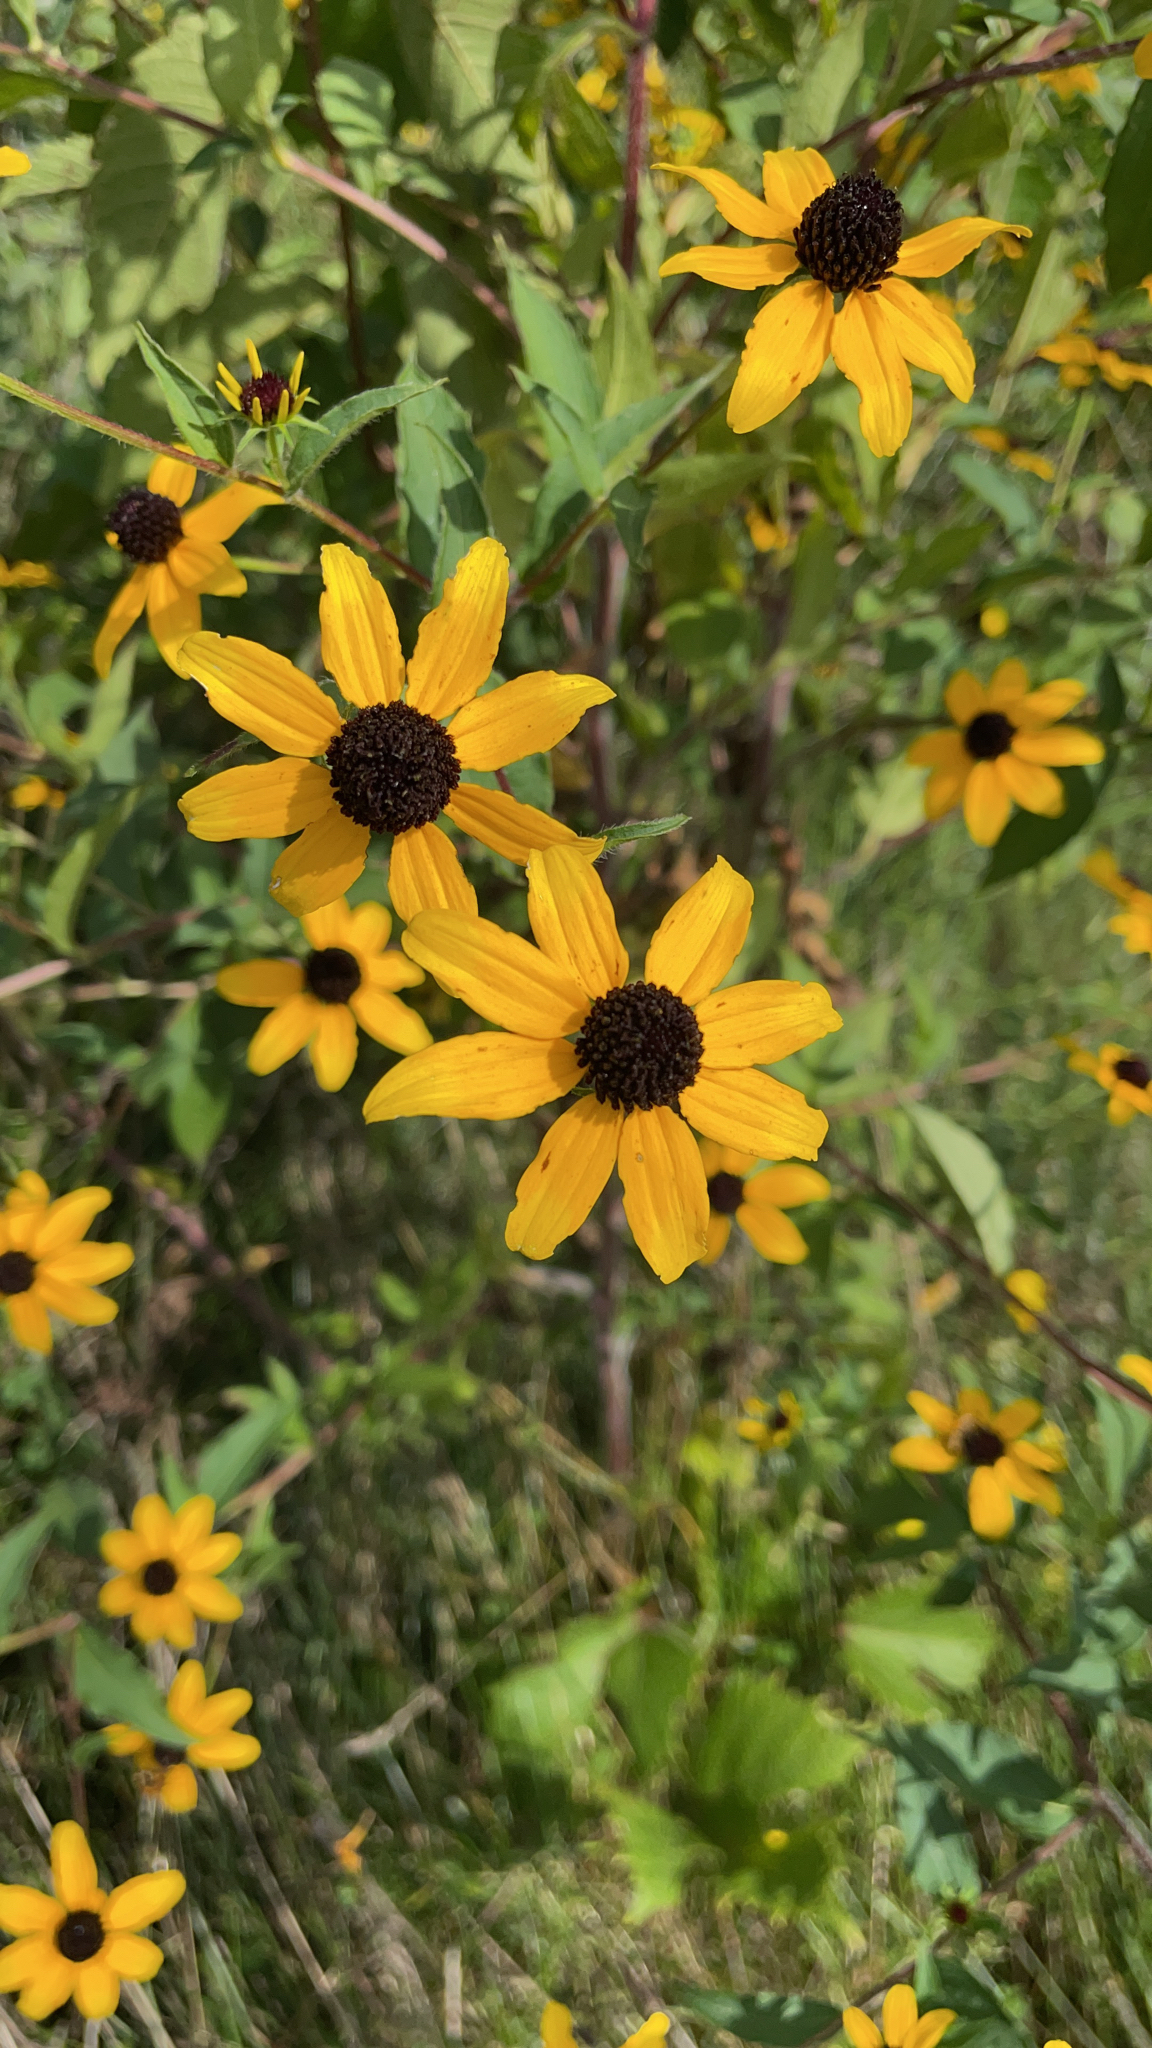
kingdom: Plantae
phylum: Tracheophyta
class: Magnoliopsida
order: Asterales
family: Asteraceae
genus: Rudbeckia
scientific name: Rudbeckia triloba
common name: Thin-leaved coneflower
